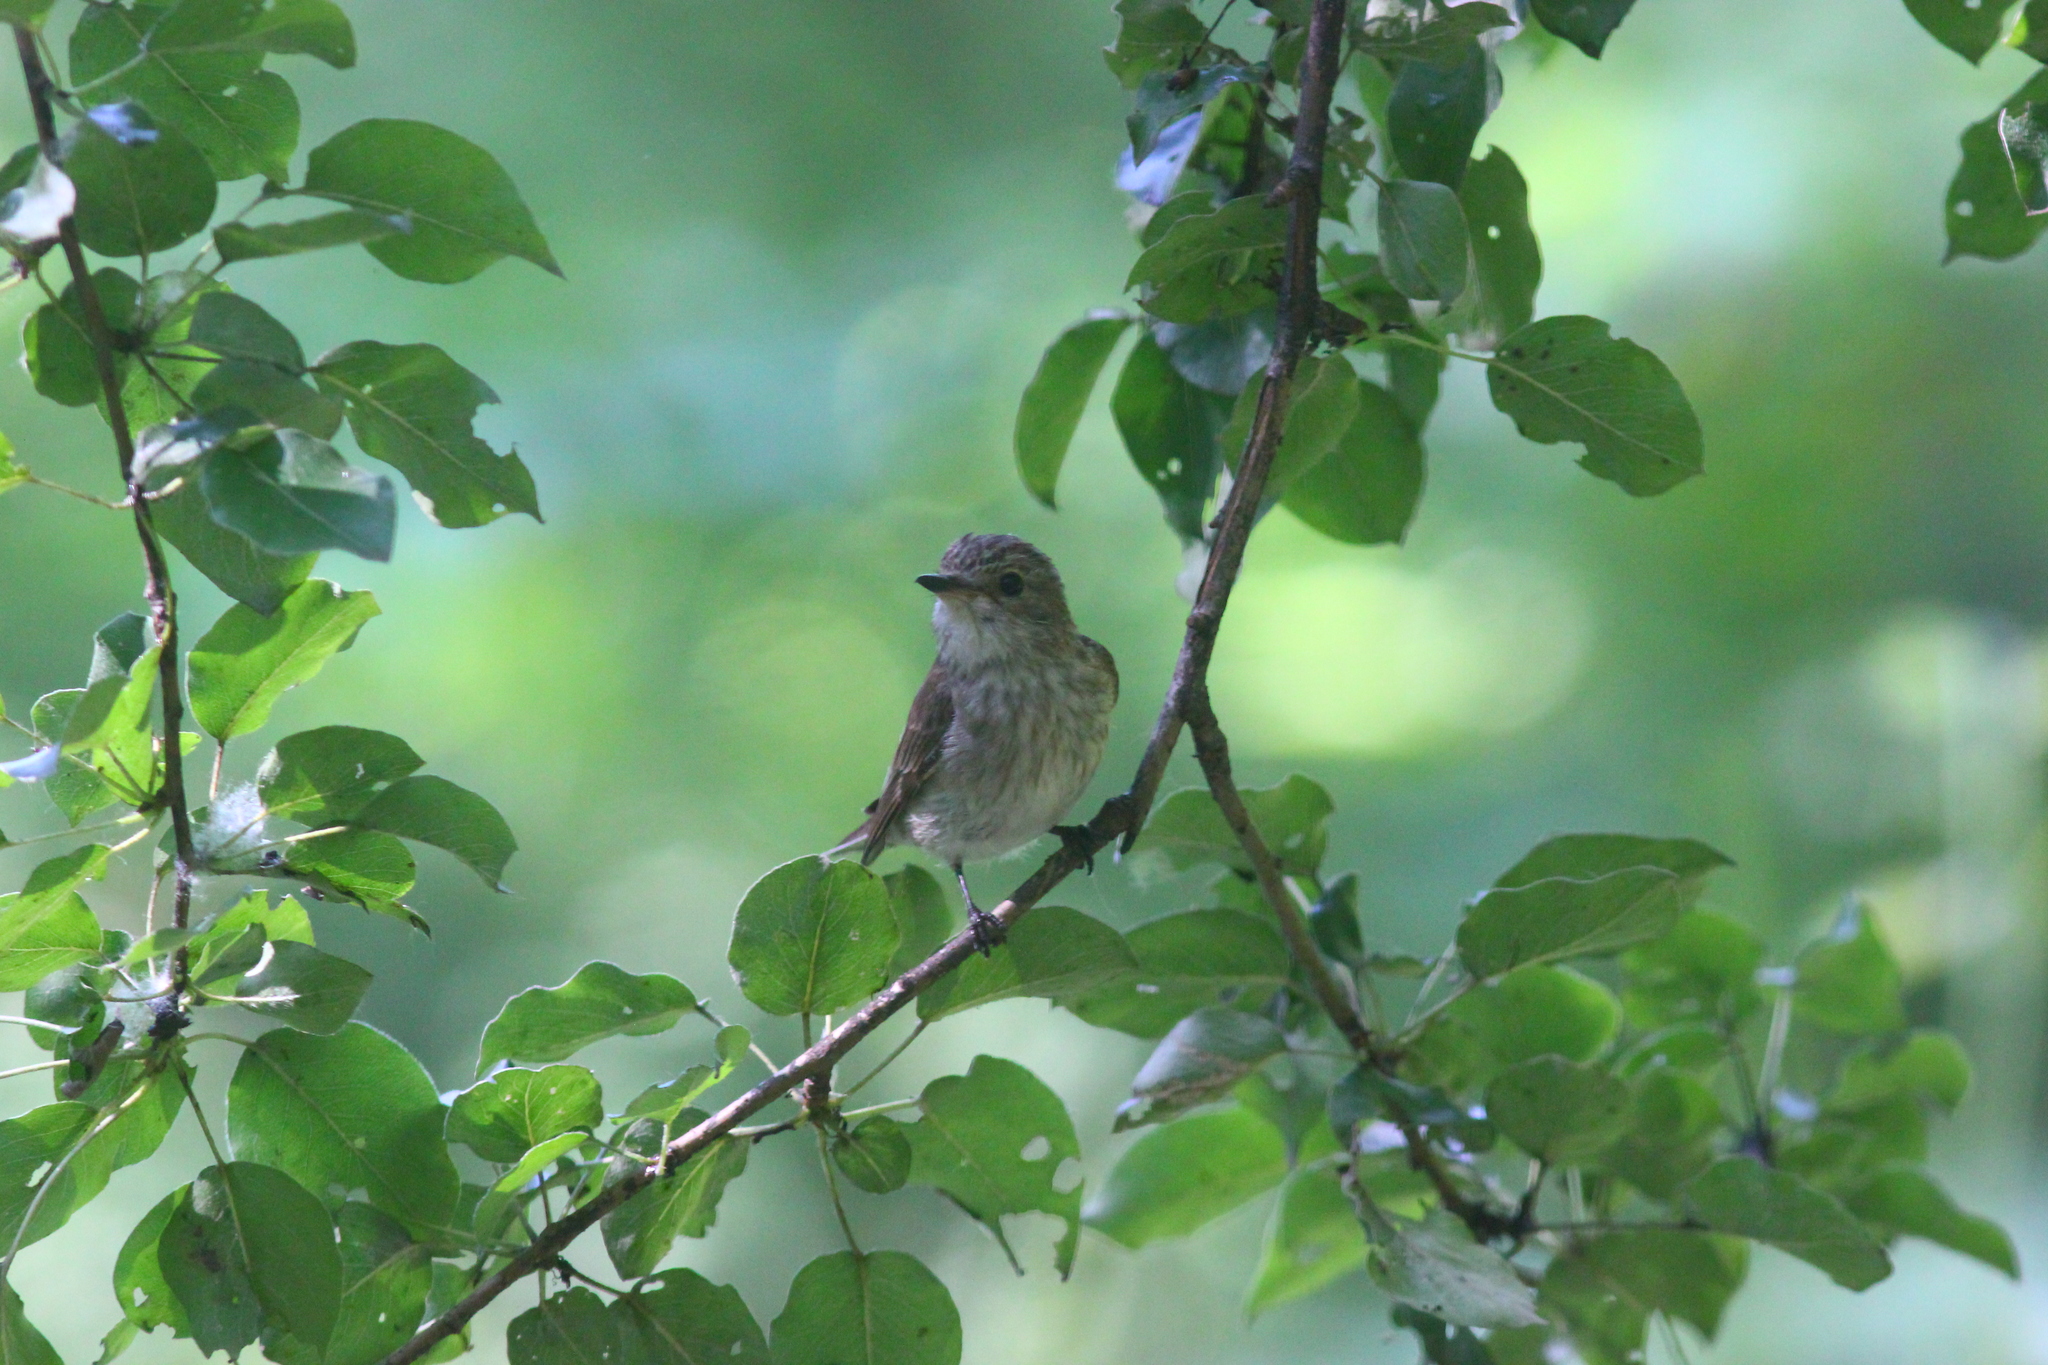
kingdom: Animalia
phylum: Chordata
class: Aves
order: Passeriformes
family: Muscicapidae
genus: Muscicapa
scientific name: Muscicapa striata
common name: Spotted flycatcher
